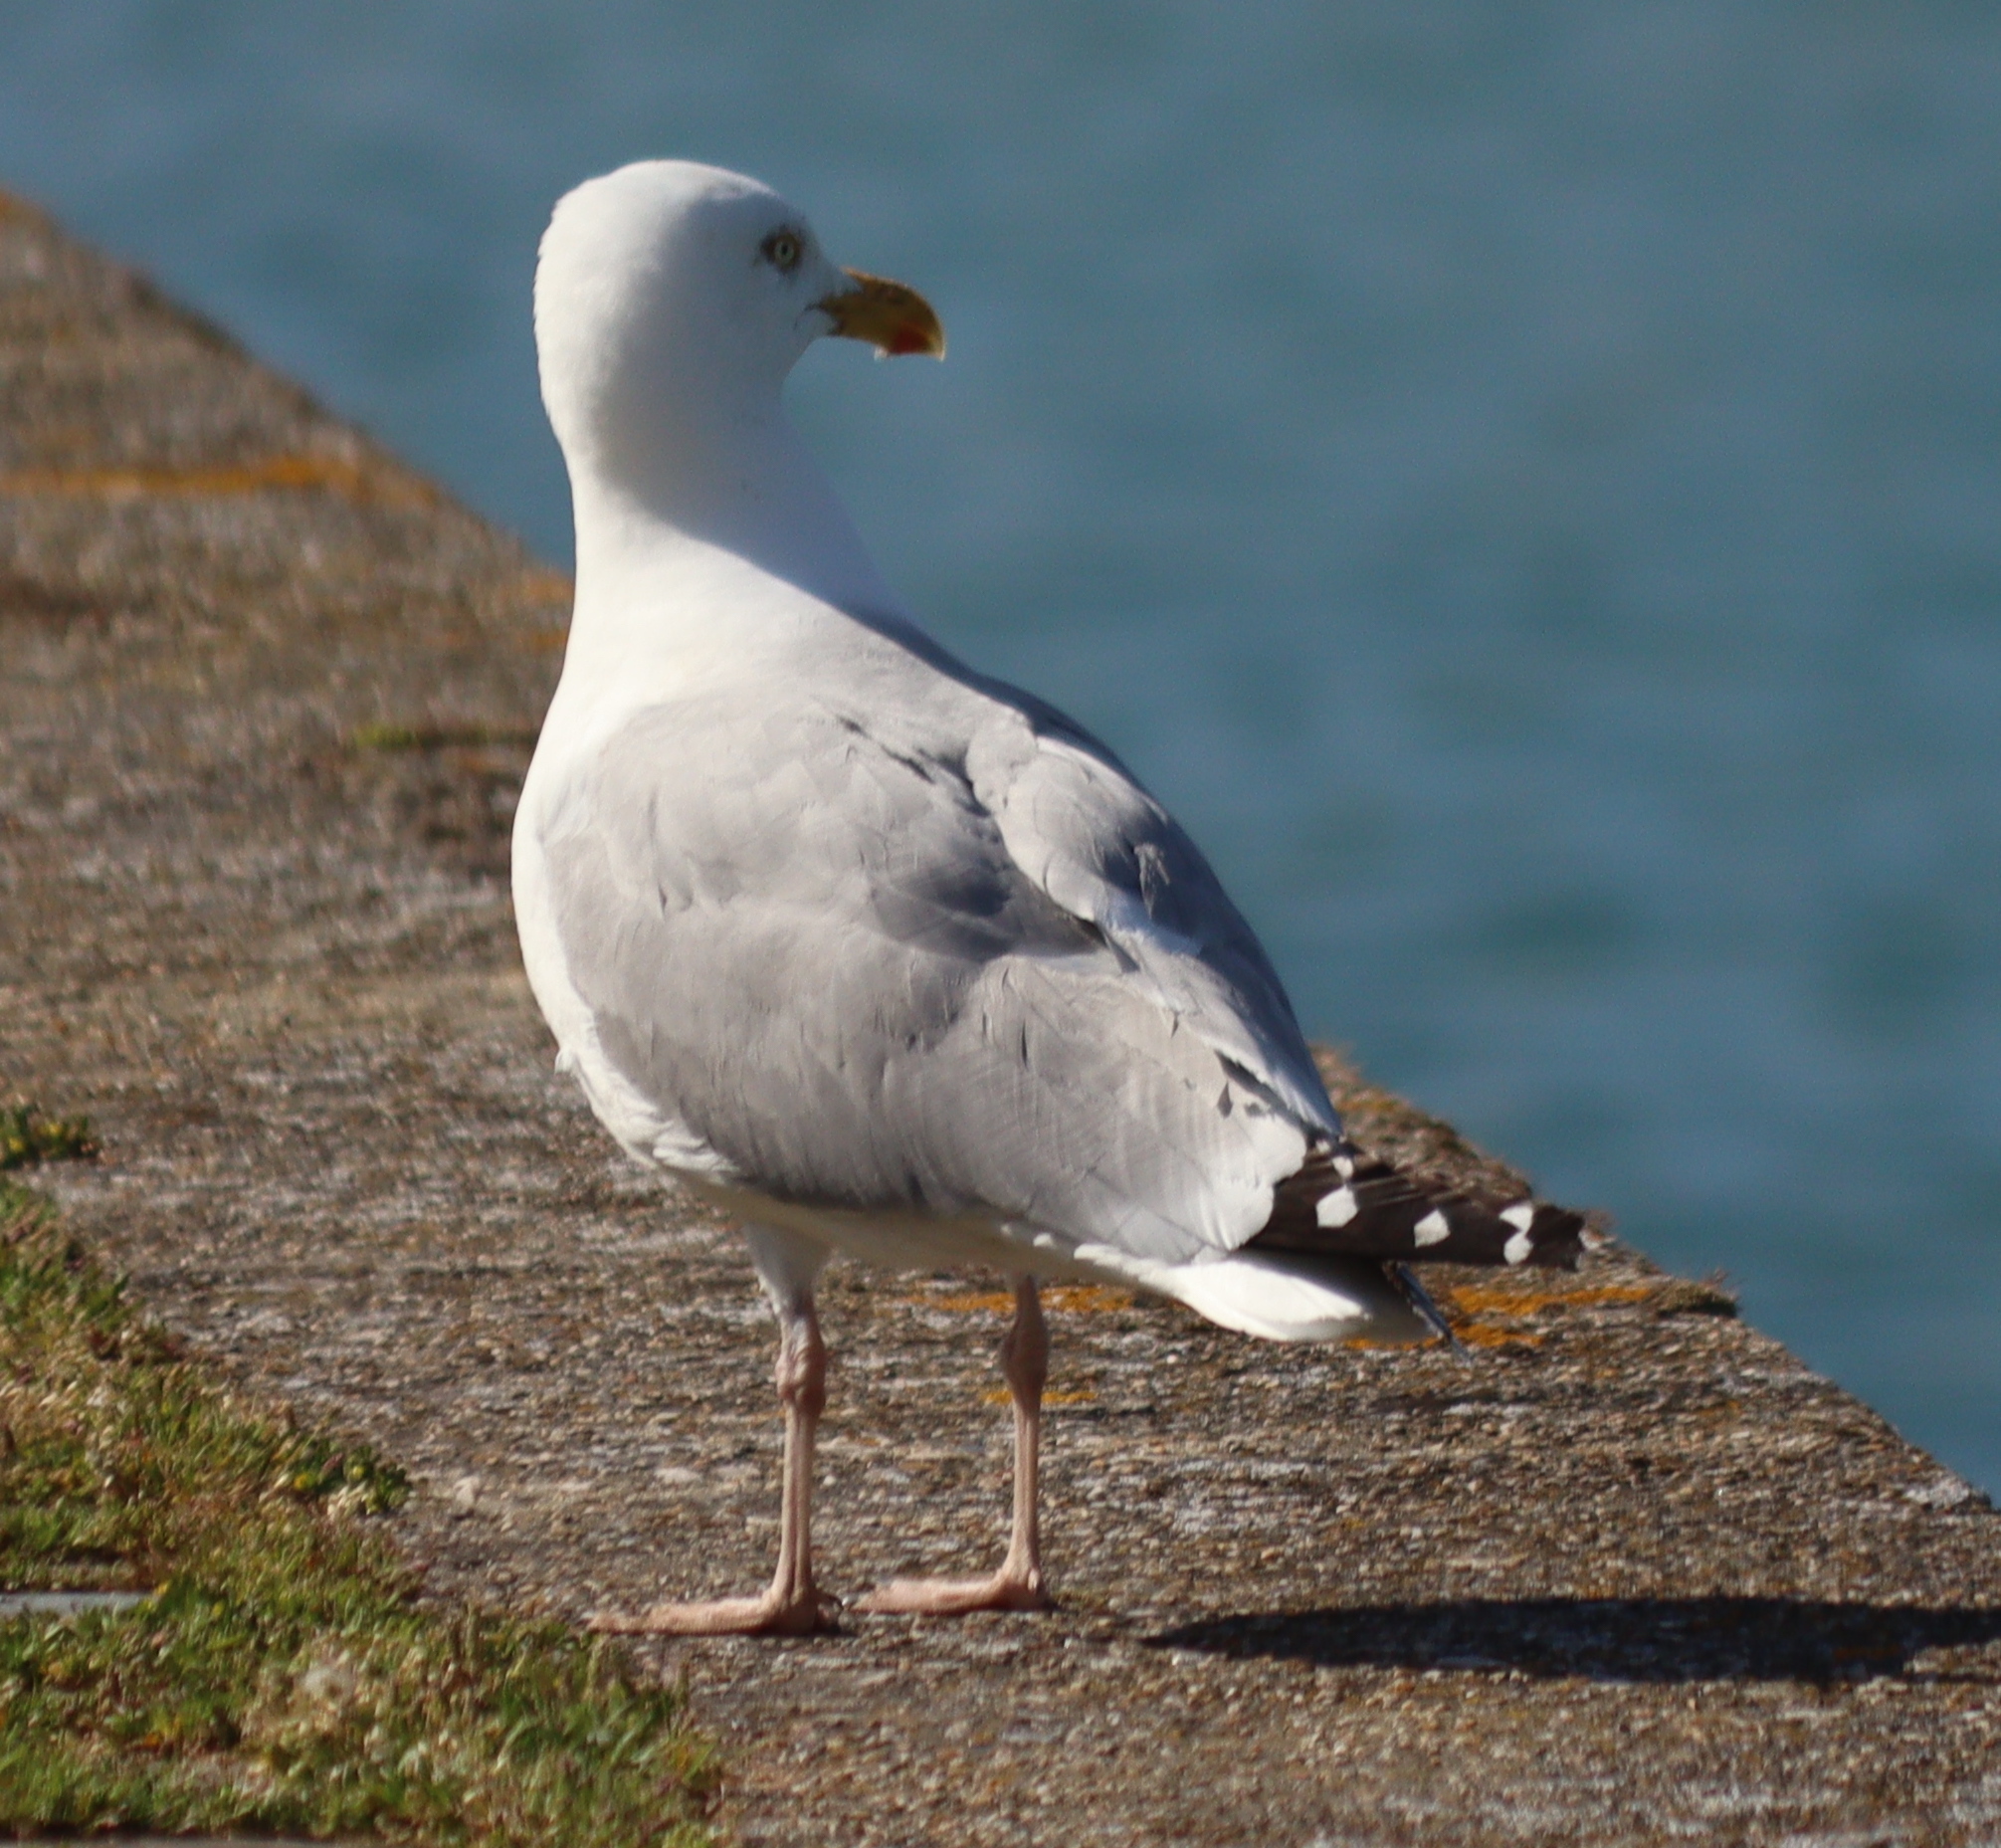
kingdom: Animalia
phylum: Chordata
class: Aves
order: Charadriiformes
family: Laridae
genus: Larus
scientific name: Larus argentatus
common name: Herring gull
